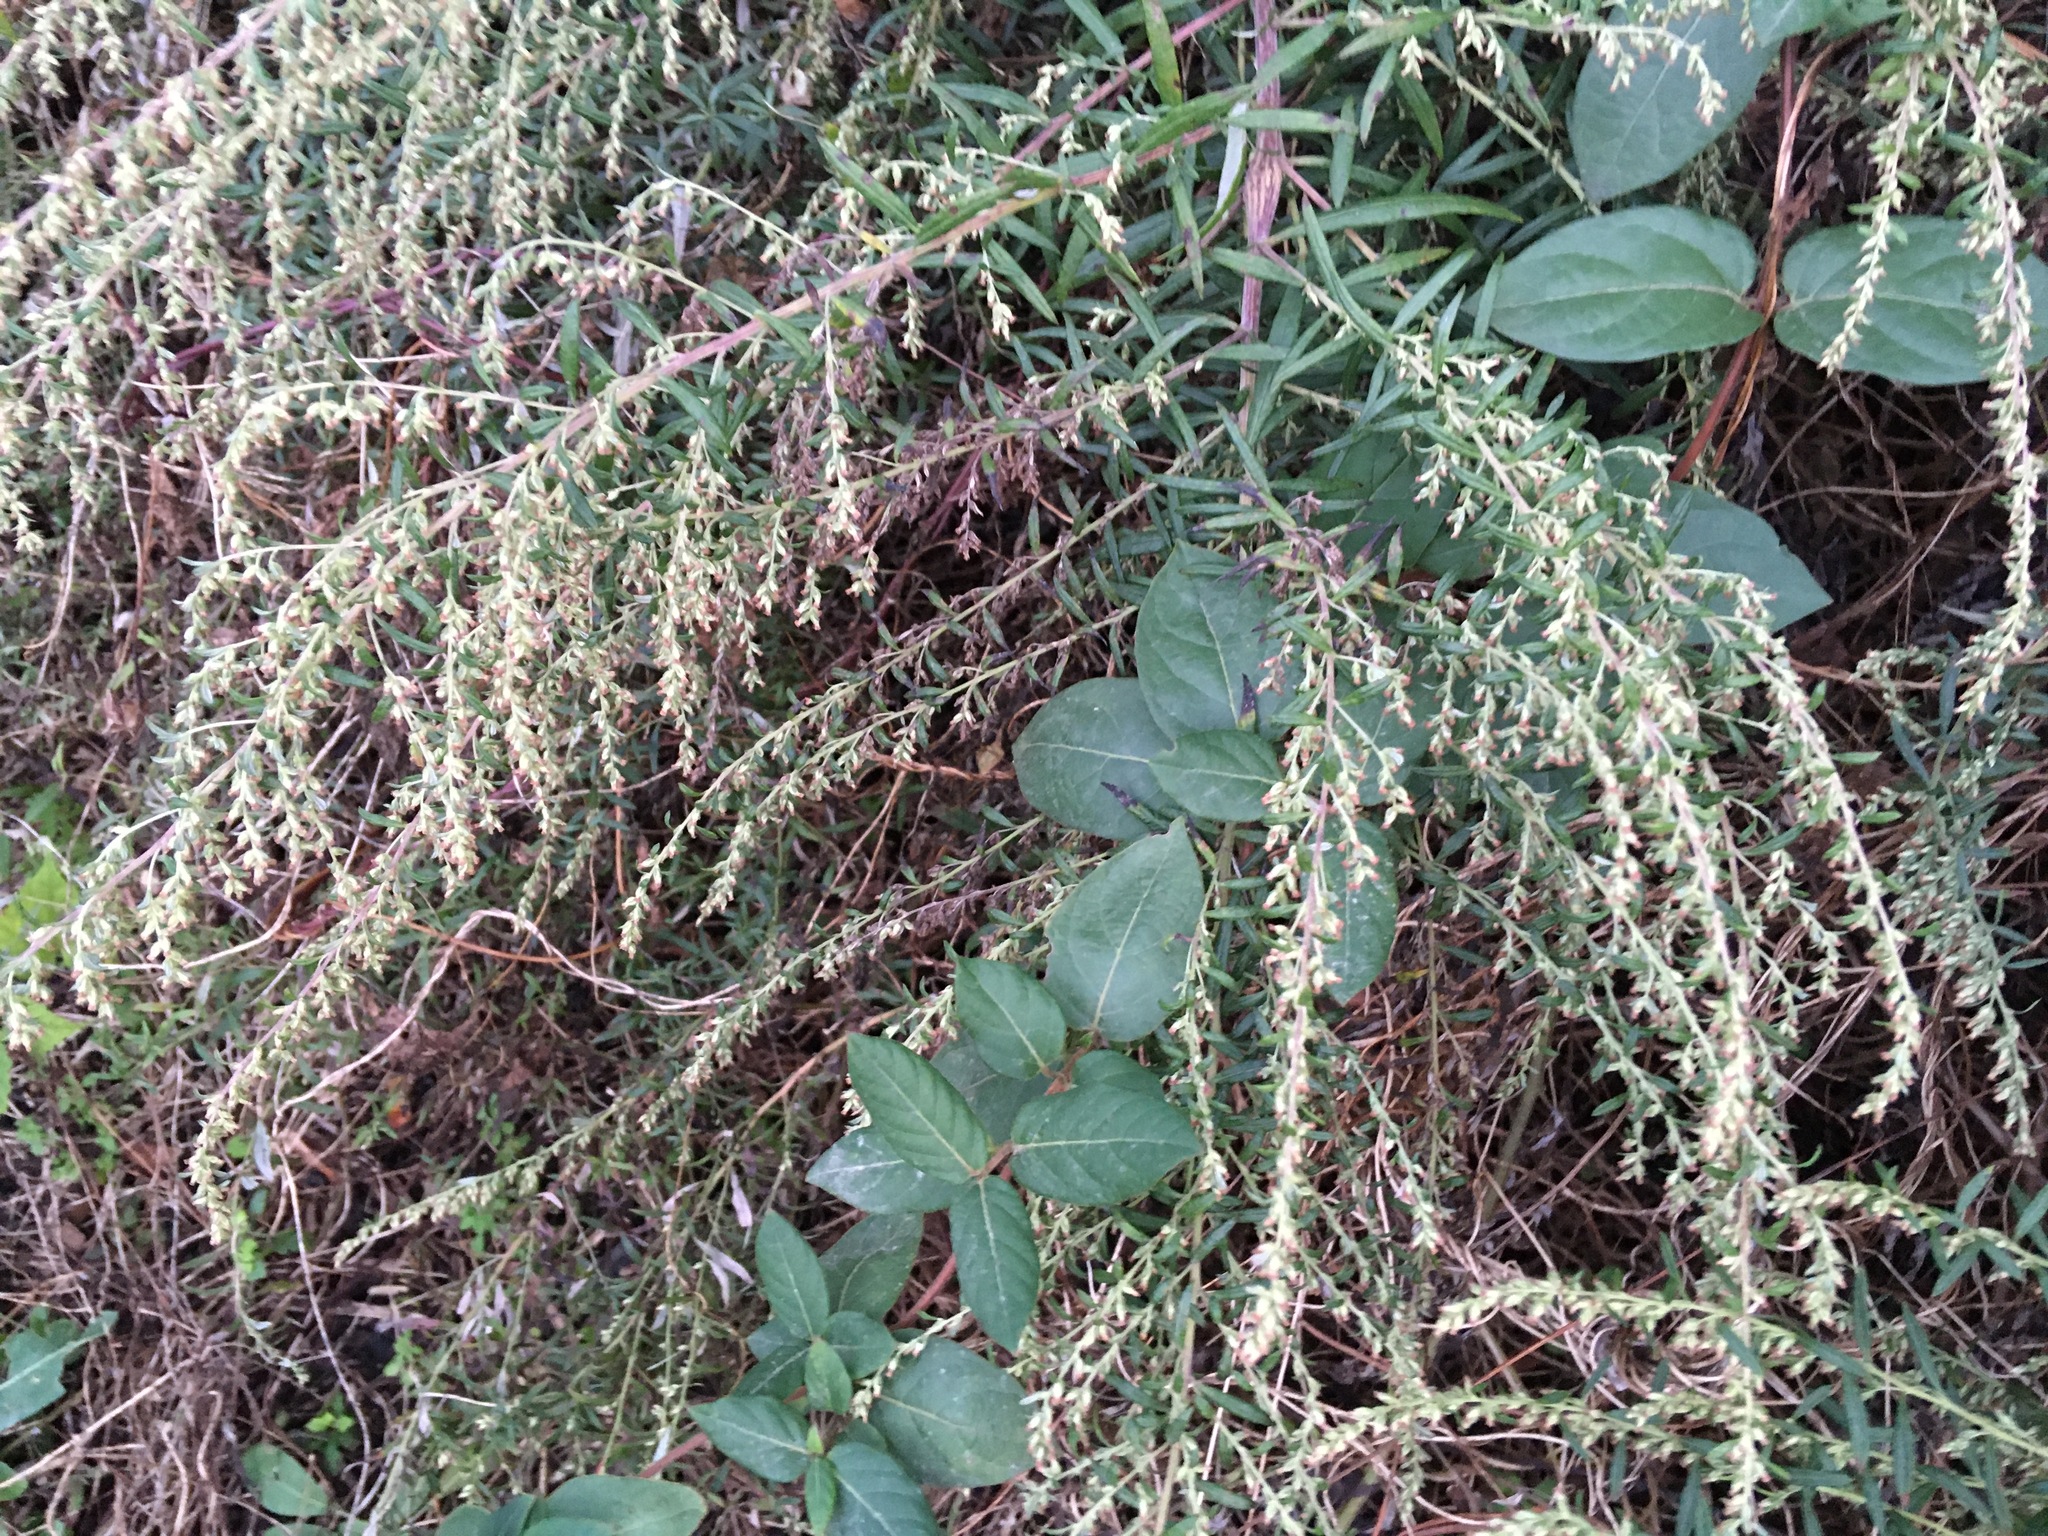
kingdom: Plantae
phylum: Tracheophyta
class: Magnoliopsida
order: Asterales
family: Asteraceae
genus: Artemisia
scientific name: Artemisia vulgaris
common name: Mugwort
